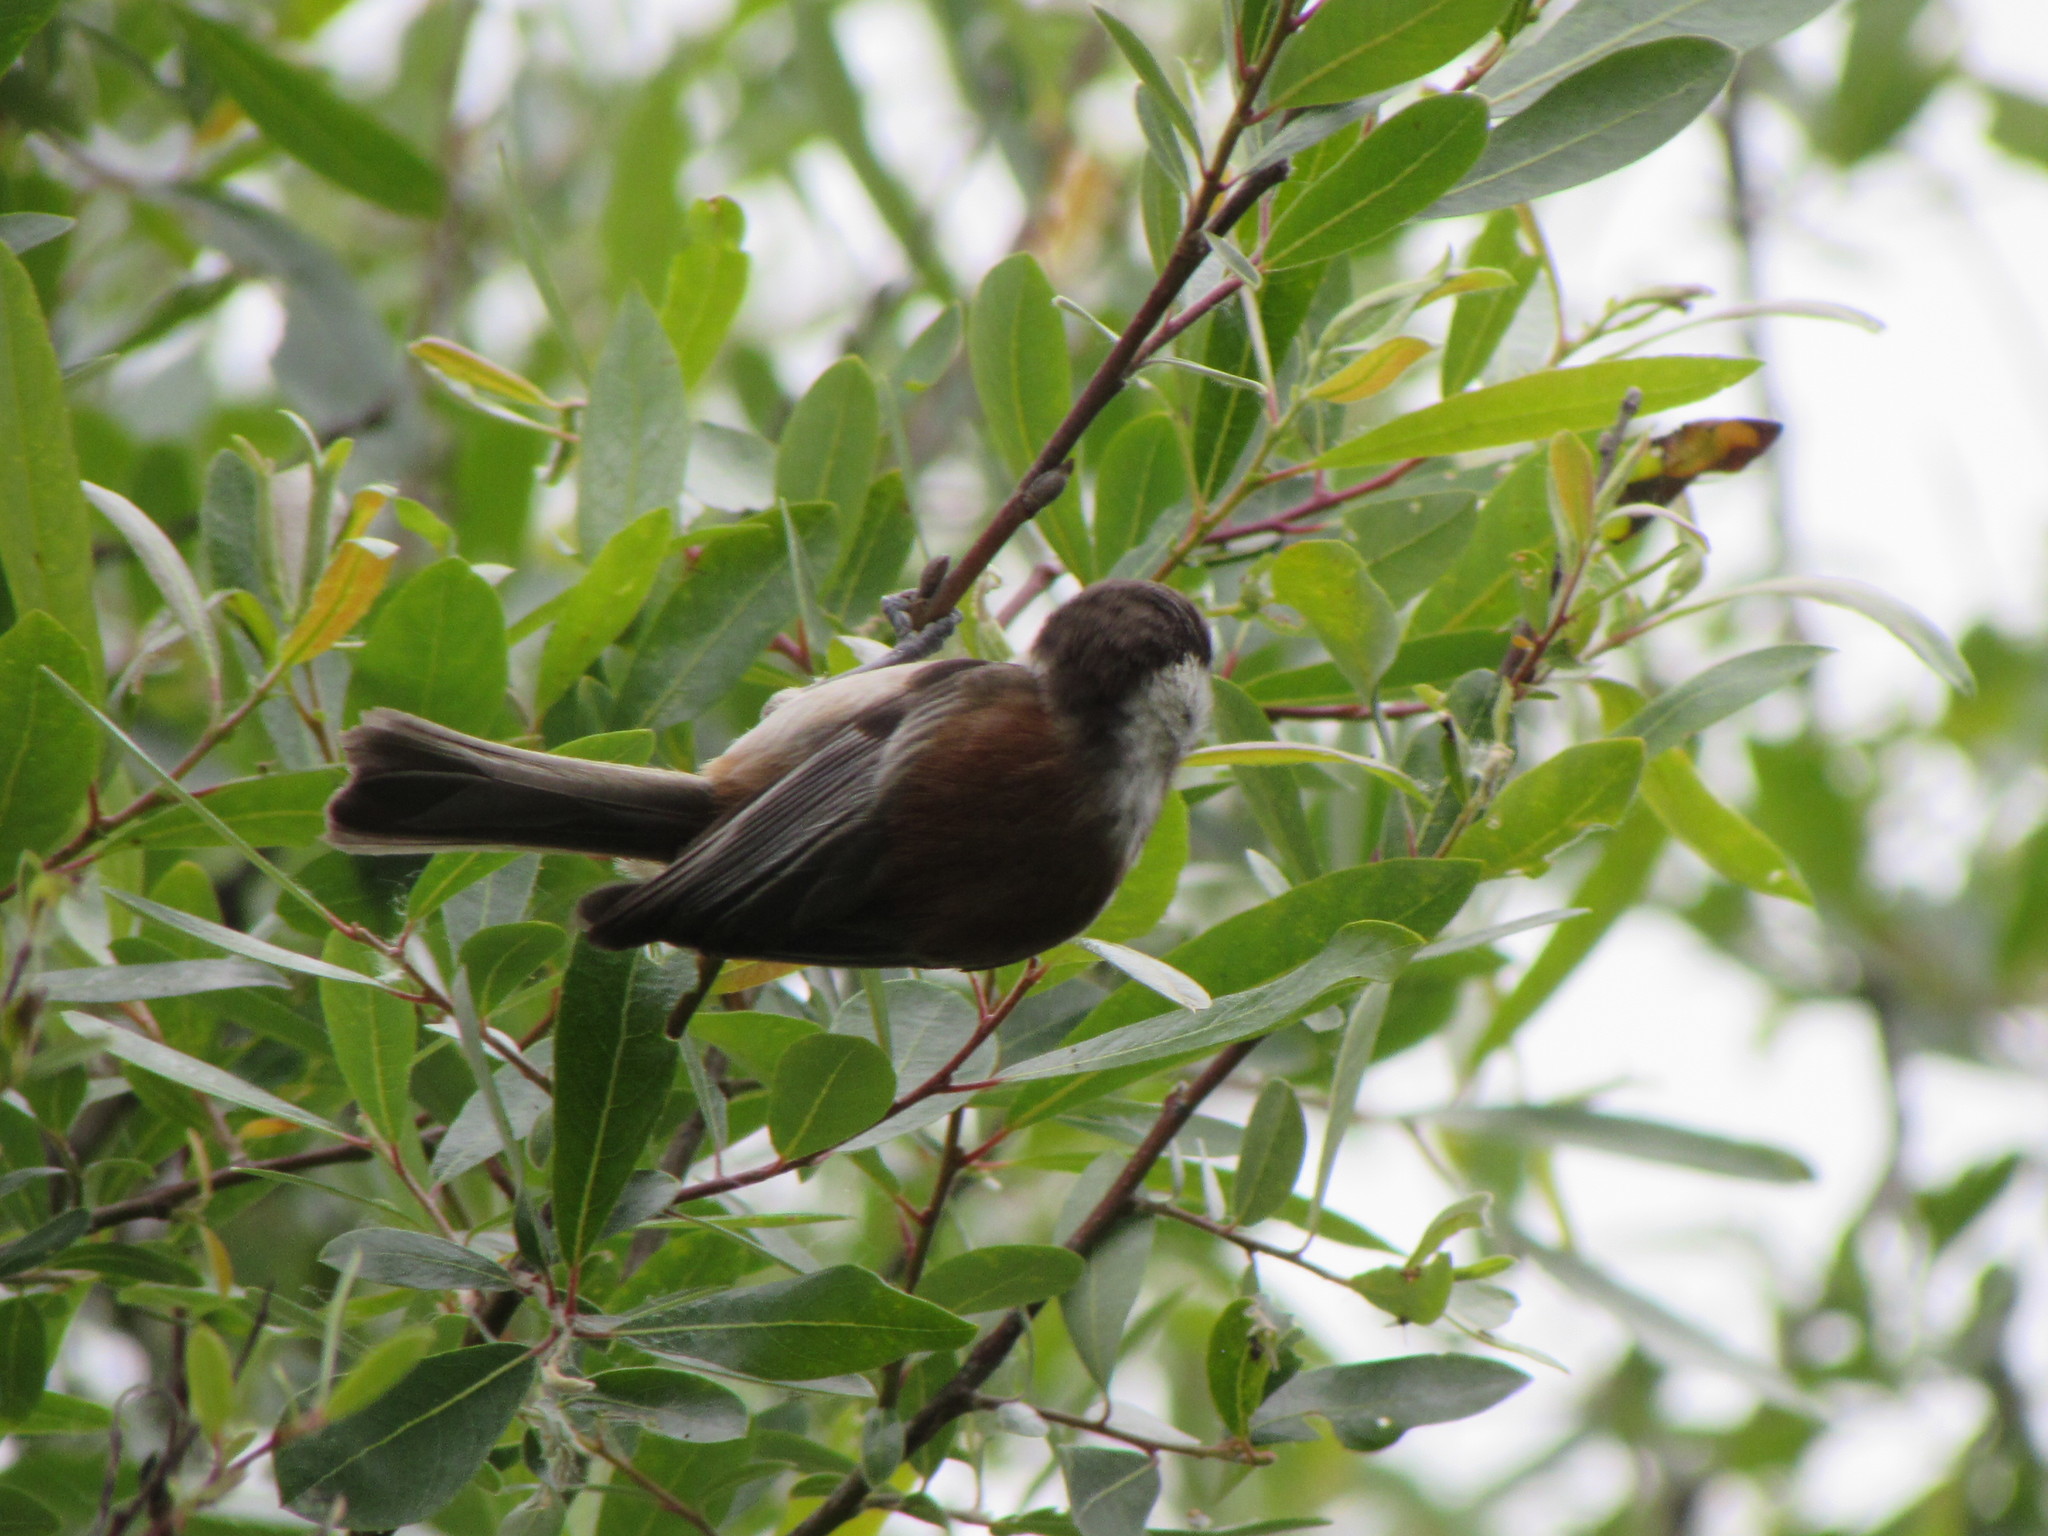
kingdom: Animalia
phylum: Chordata
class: Aves
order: Passeriformes
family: Paridae
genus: Poecile
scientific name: Poecile rufescens
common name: Chestnut-backed chickadee
